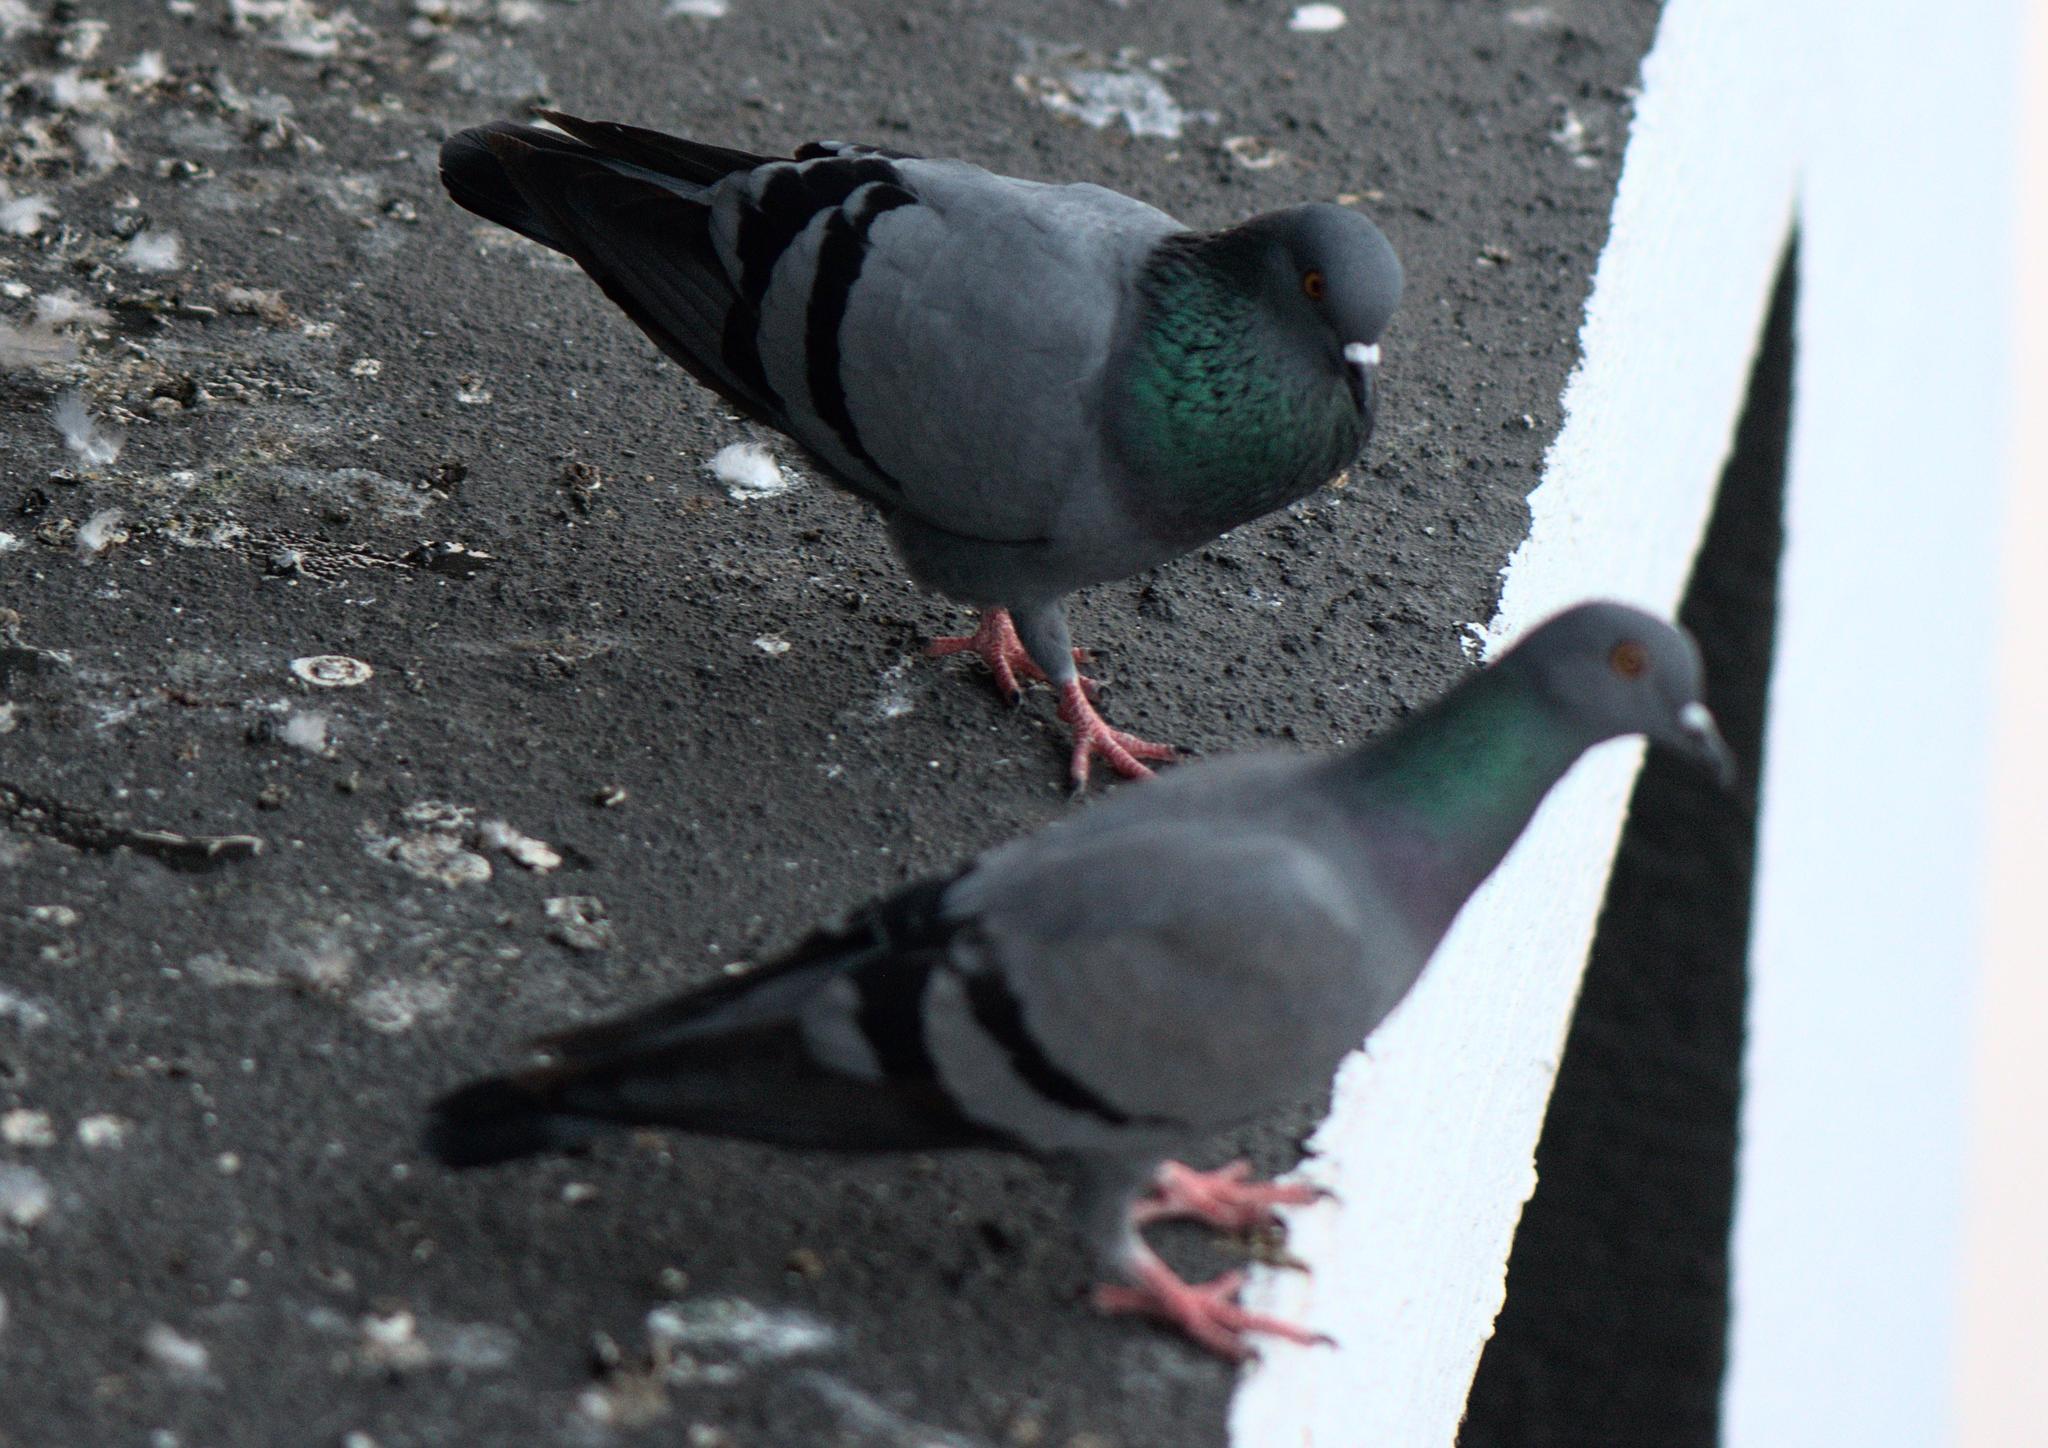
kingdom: Animalia
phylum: Chordata
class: Aves
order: Columbiformes
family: Columbidae
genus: Columba
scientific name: Columba livia
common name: Rock pigeon
